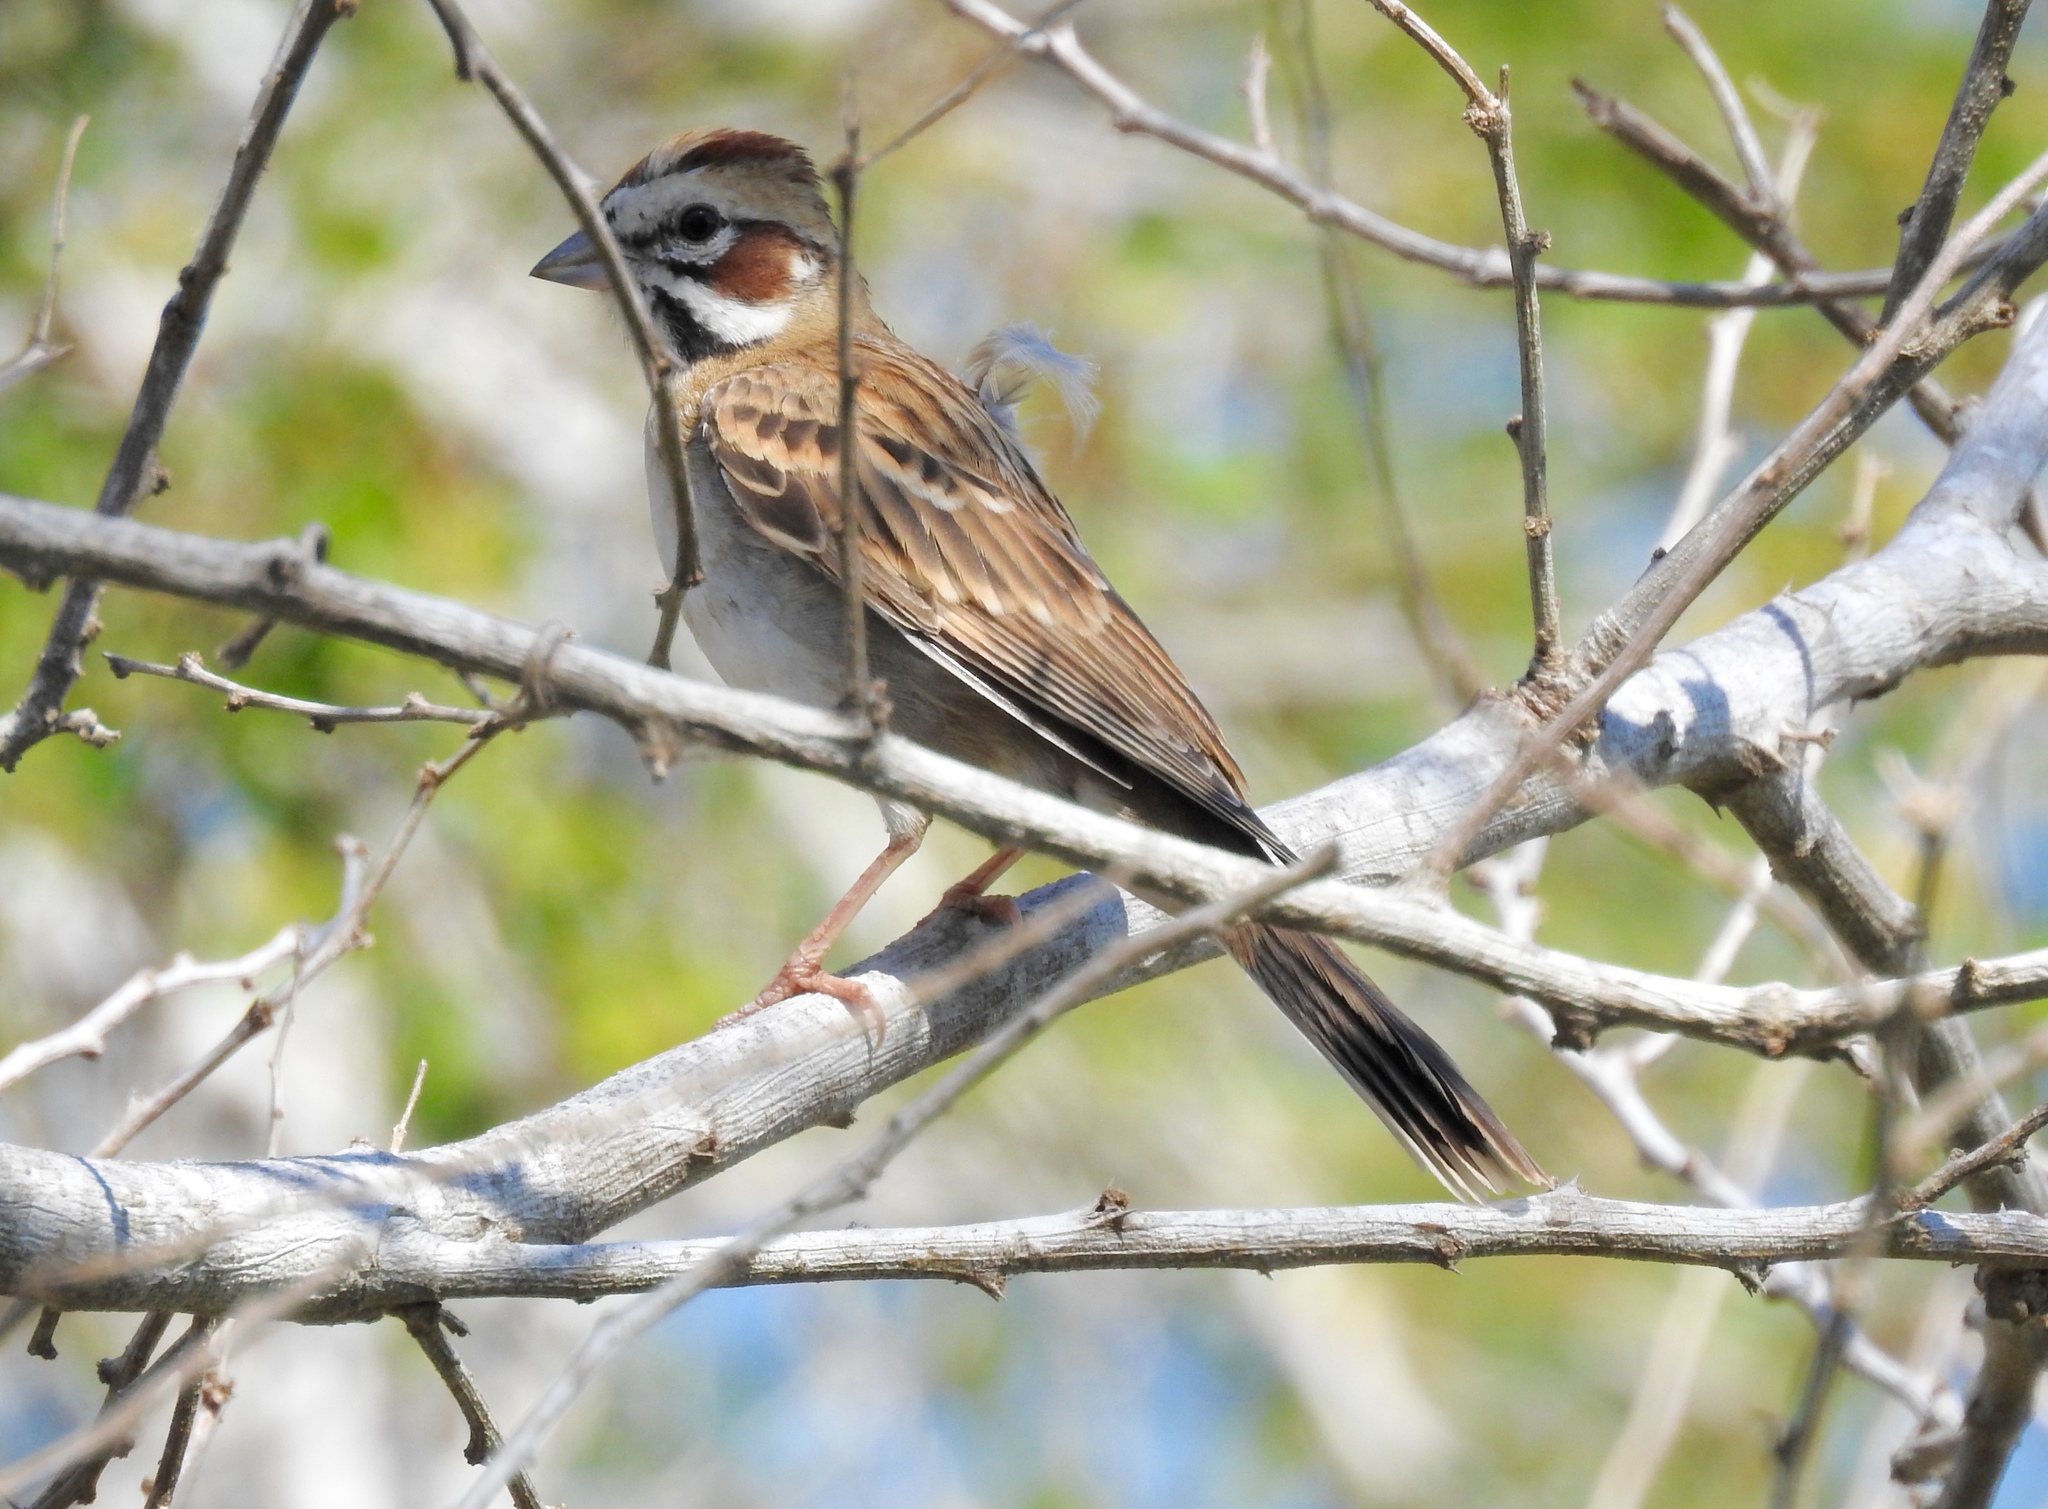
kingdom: Animalia
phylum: Chordata
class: Aves
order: Passeriformes
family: Passerellidae
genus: Chondestes
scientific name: Chondestes grammacus
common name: Lark sparrow
